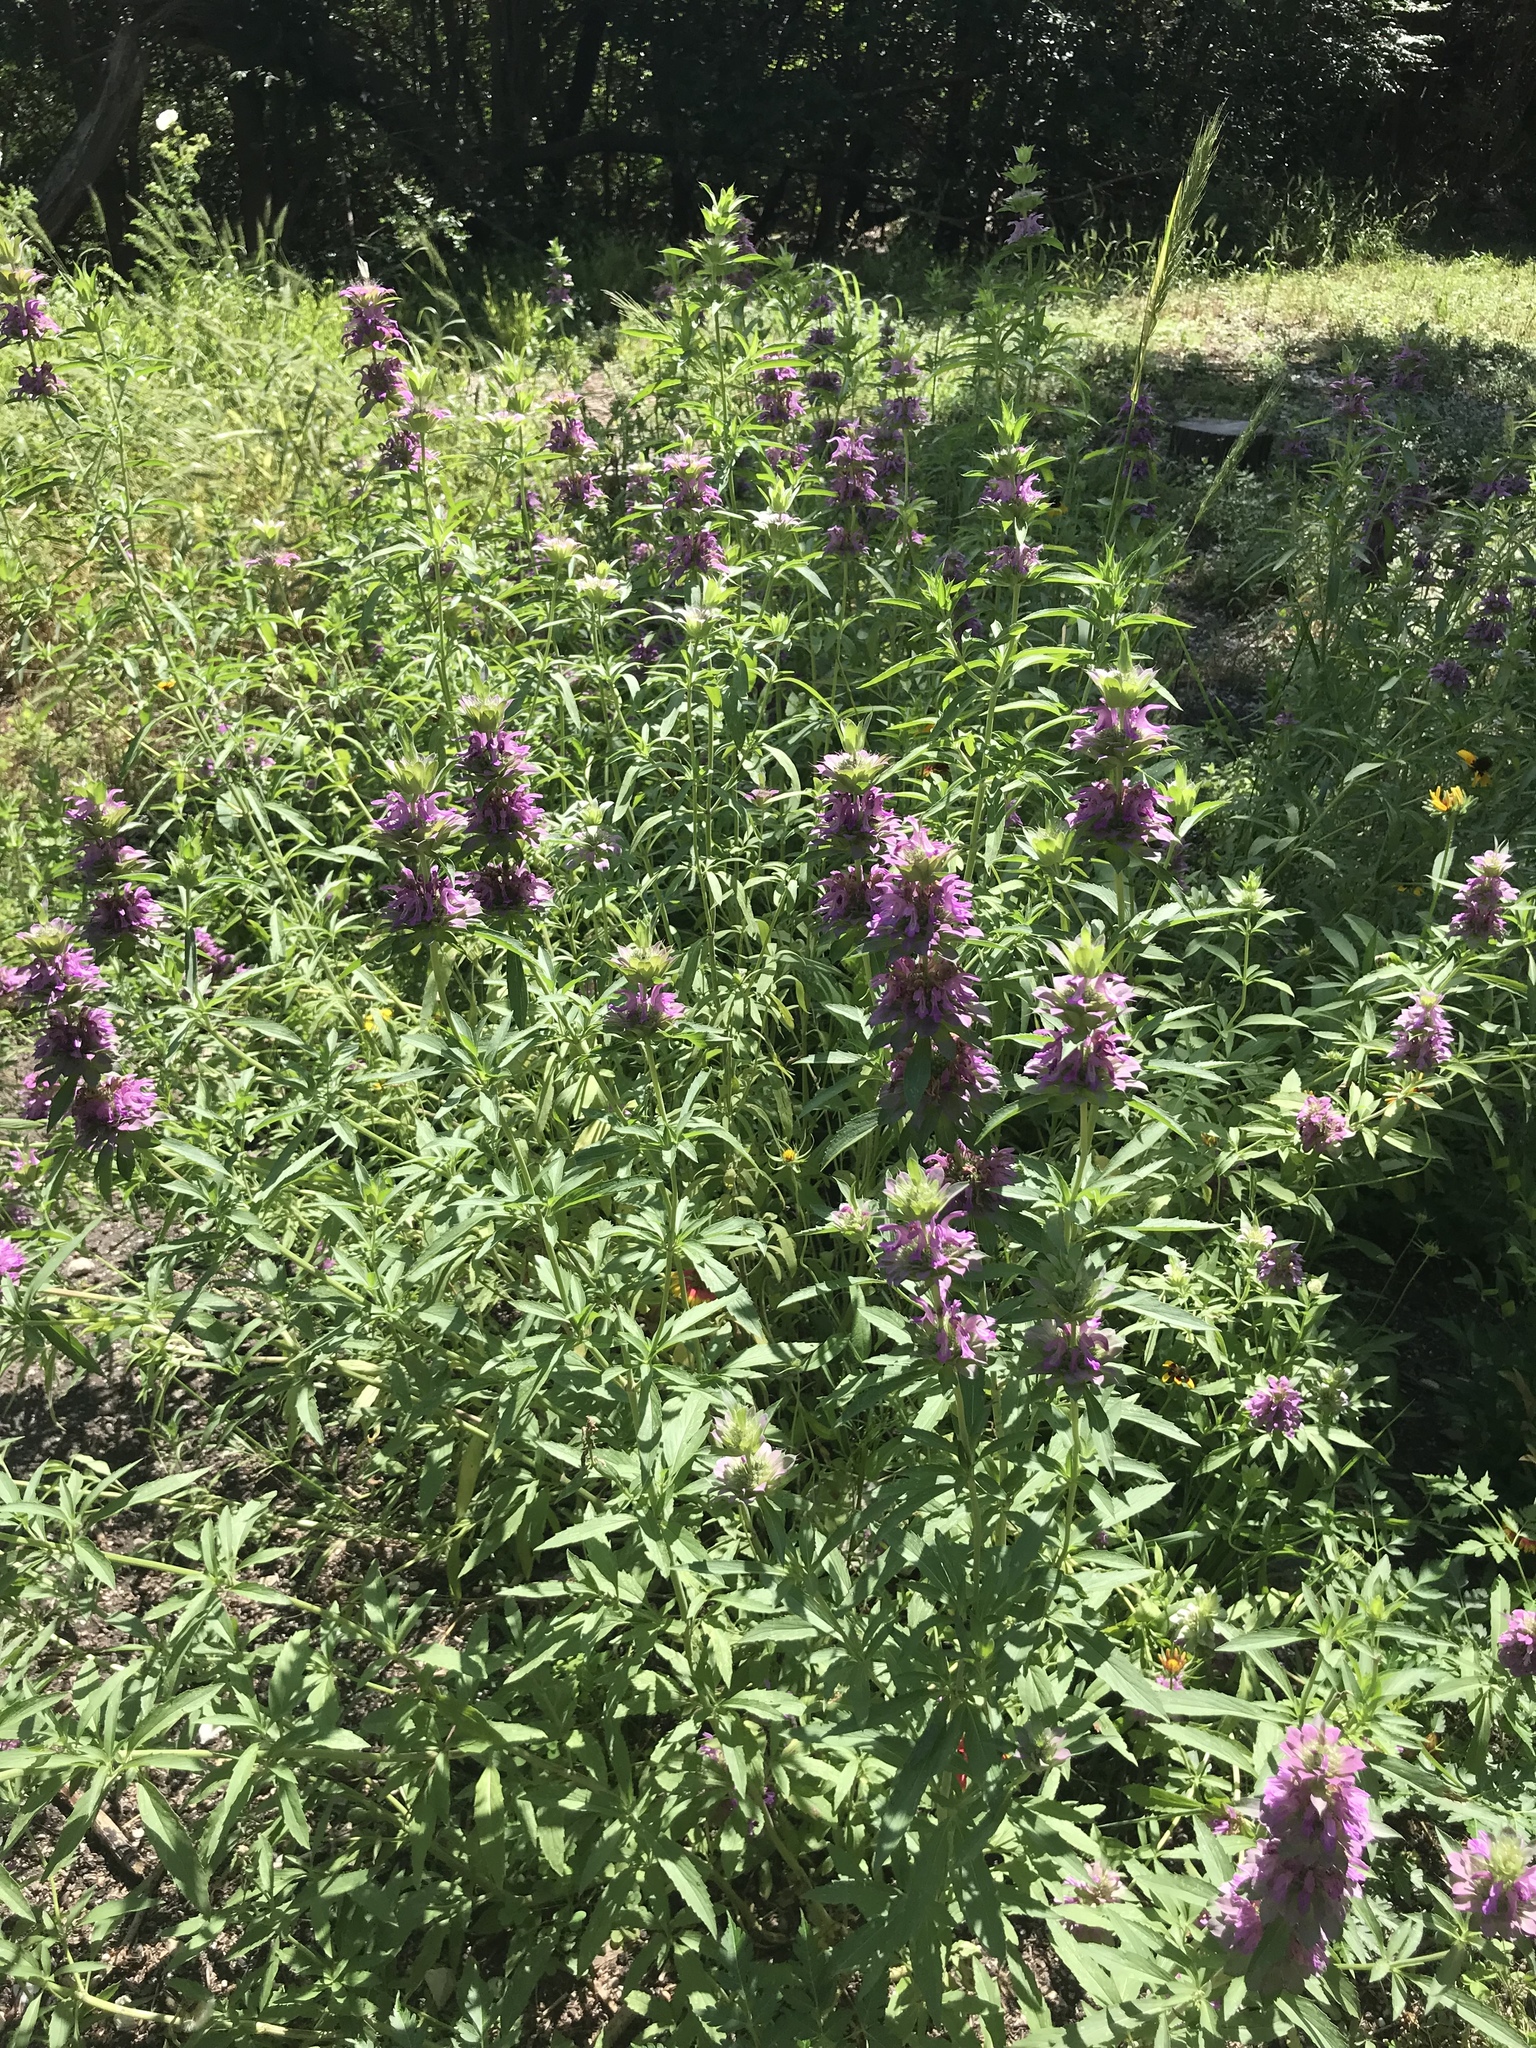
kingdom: Plantae
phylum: Tracheophyta
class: Magnoliopsida
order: Lamiales
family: Lamiaceae
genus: Monarda
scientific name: Monarda citriodora
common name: Lemon beebalm
